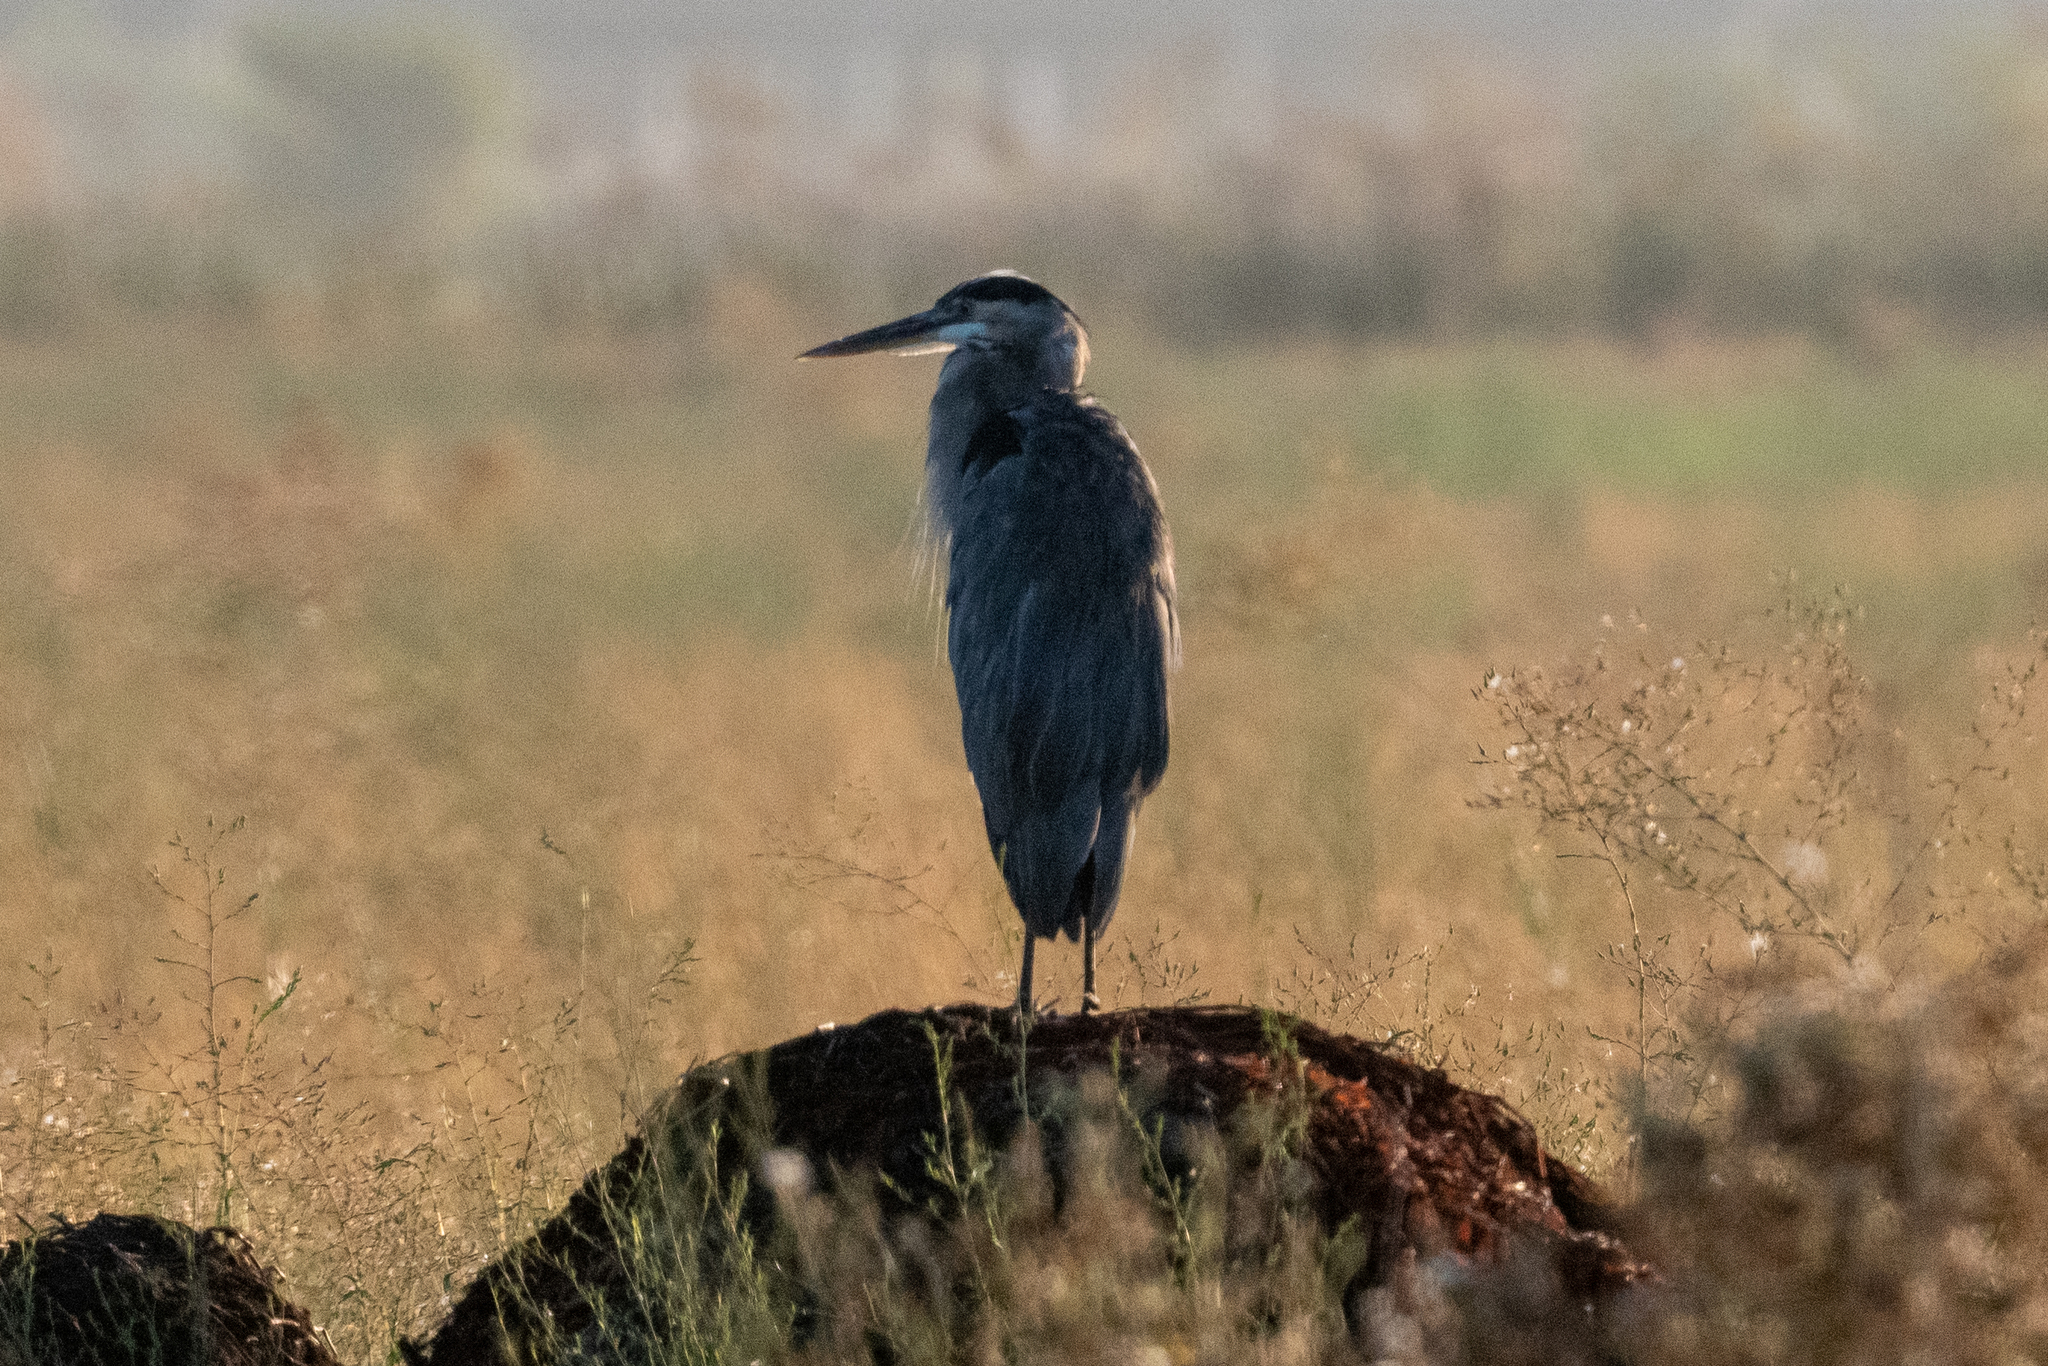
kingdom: Animalia
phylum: Chordata
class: Aves
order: Pelecaniformes
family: Ardeidae
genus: Ardea
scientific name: Ardea herodias
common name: Great blue heron
